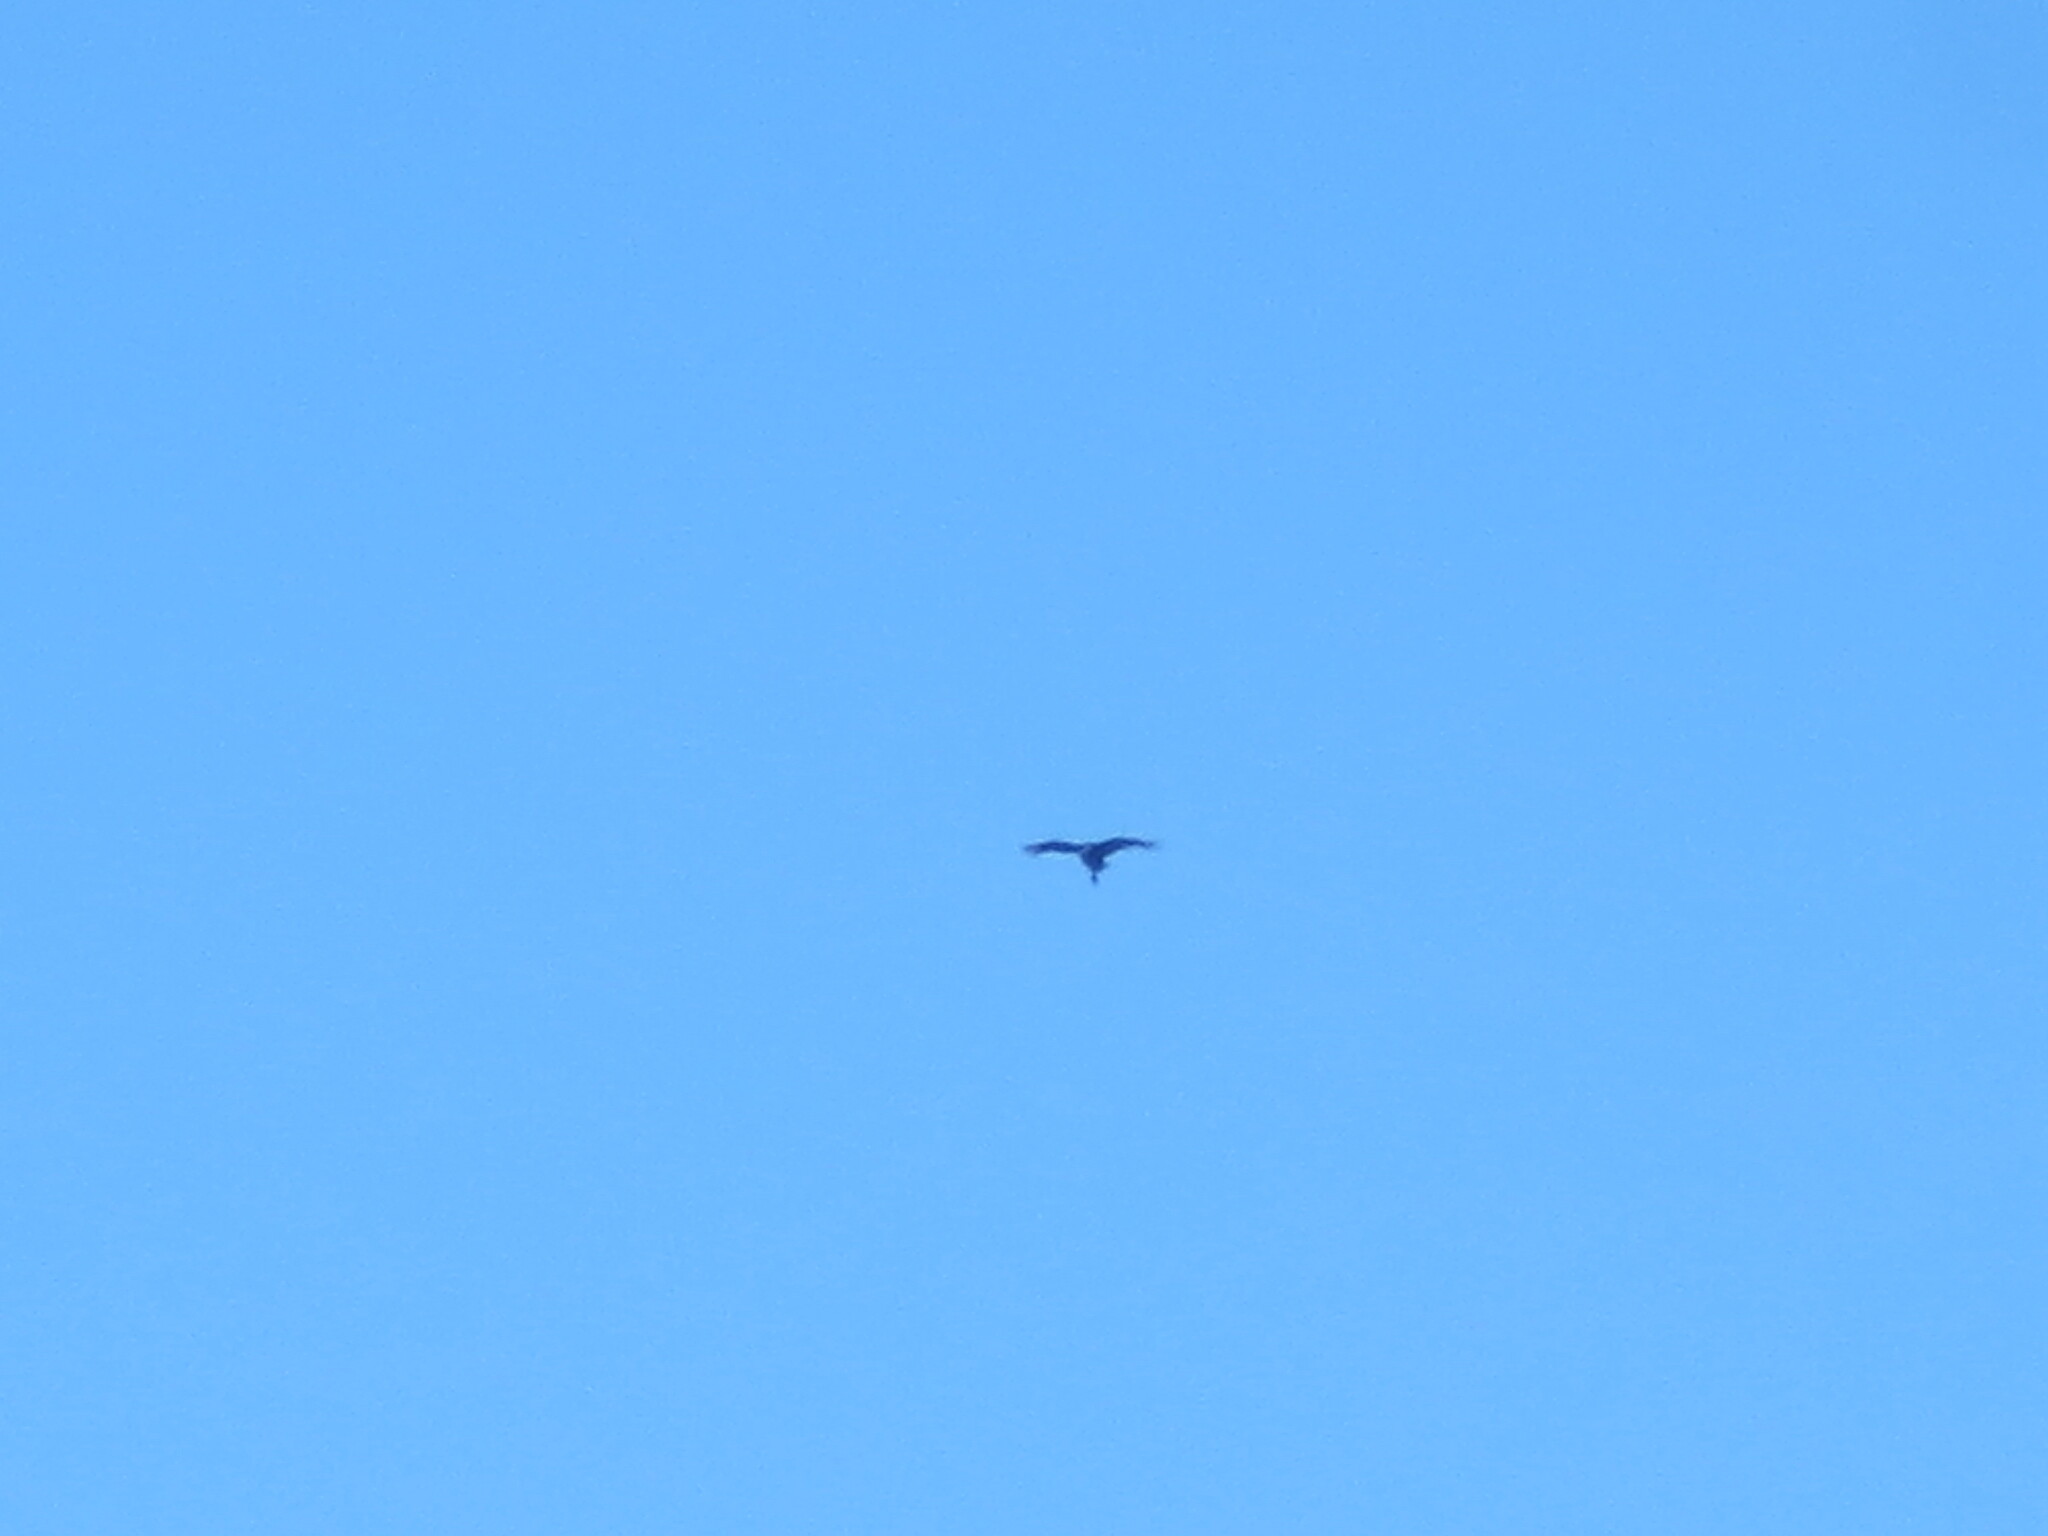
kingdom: Animalia
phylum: Chordata
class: Aves
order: Accipitriformes
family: Cathartidae
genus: Cathartes
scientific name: Cathartes aura
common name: Turkey vulture
